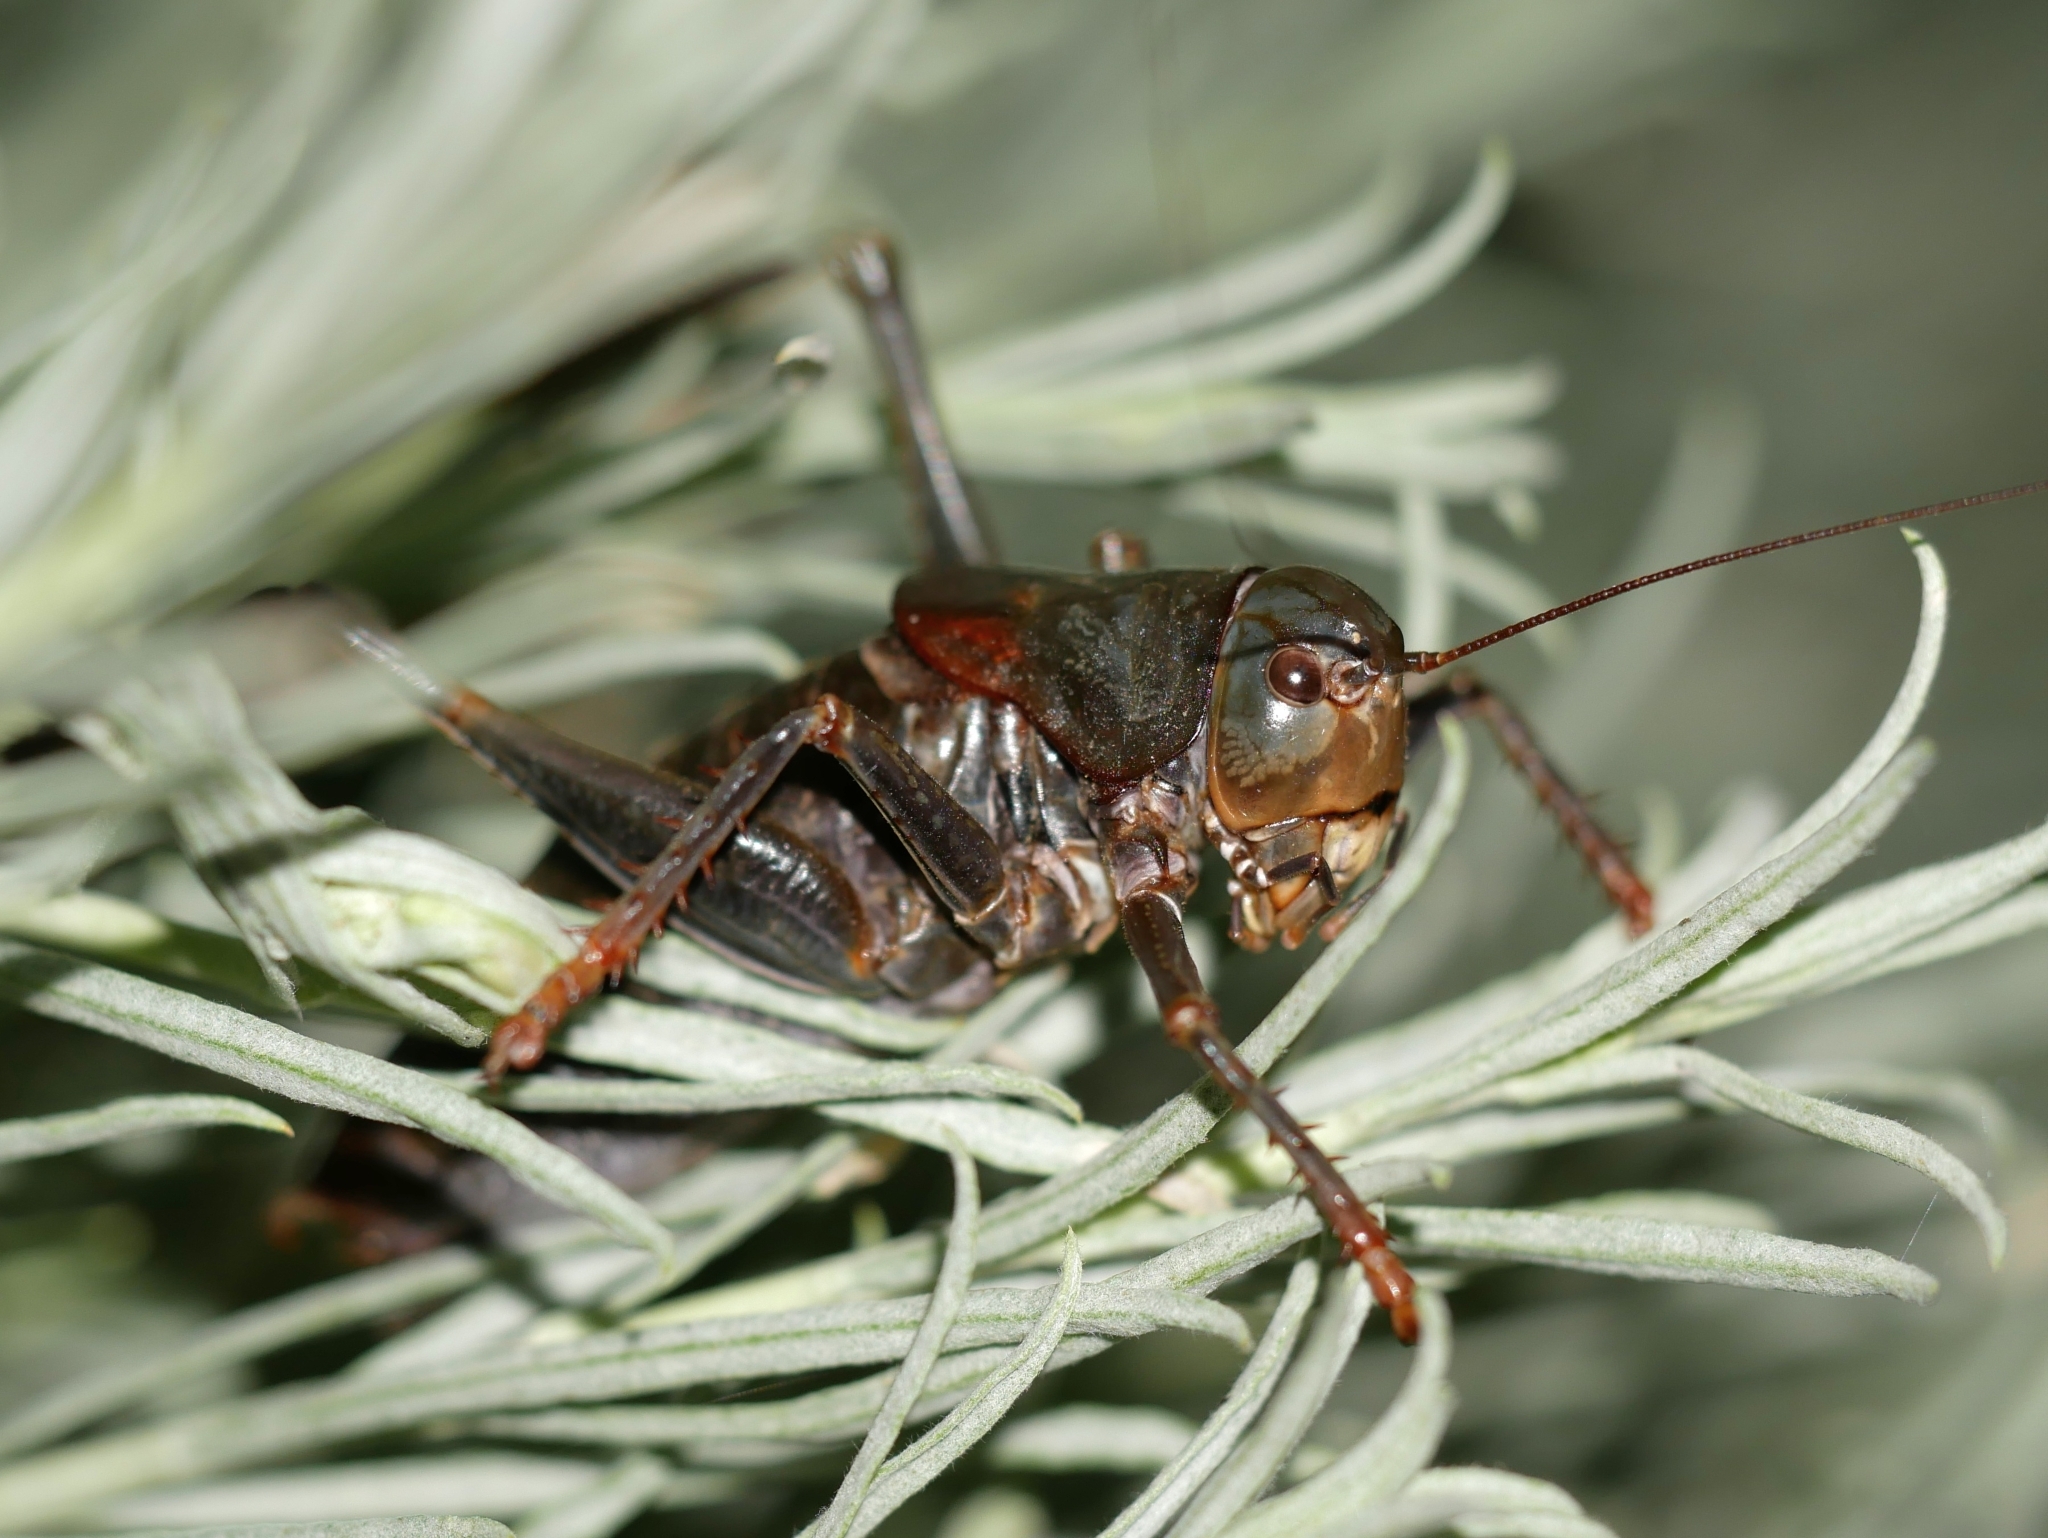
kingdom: Animalia
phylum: Arthropoda
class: Insecta
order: Orthoptera
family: Tettigoniidae
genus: Anabrus
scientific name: Anabrus simplex
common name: Mormon cricket
